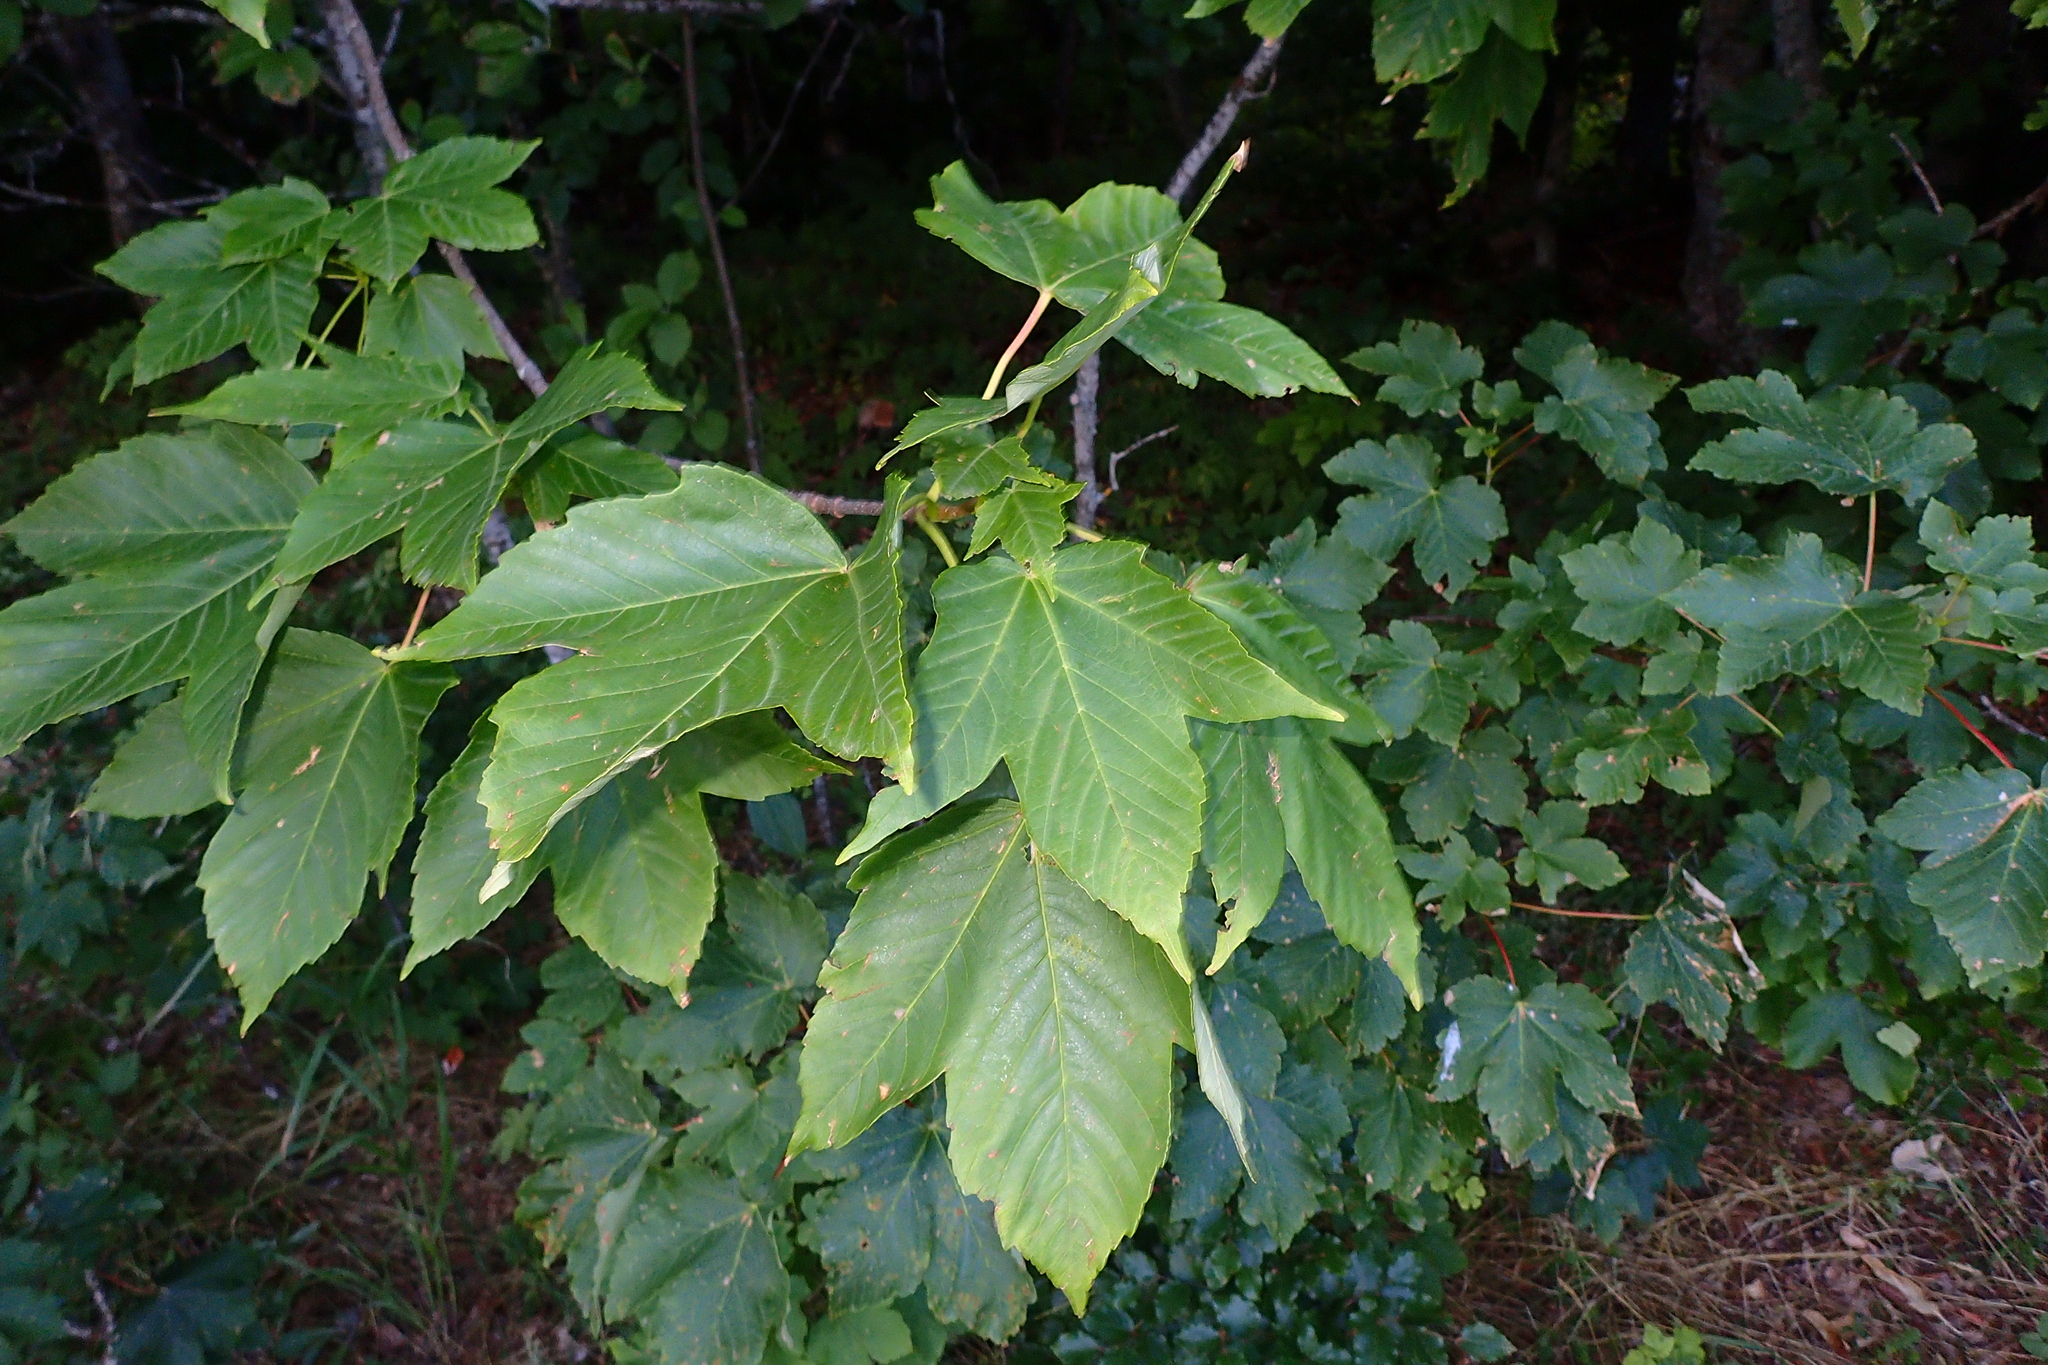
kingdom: Plantae
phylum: Tracheophyta
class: Magnoliopsida
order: Sapindales
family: Sapindaceae
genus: Acer
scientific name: Acer pseudoplatanus
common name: Sycamore
